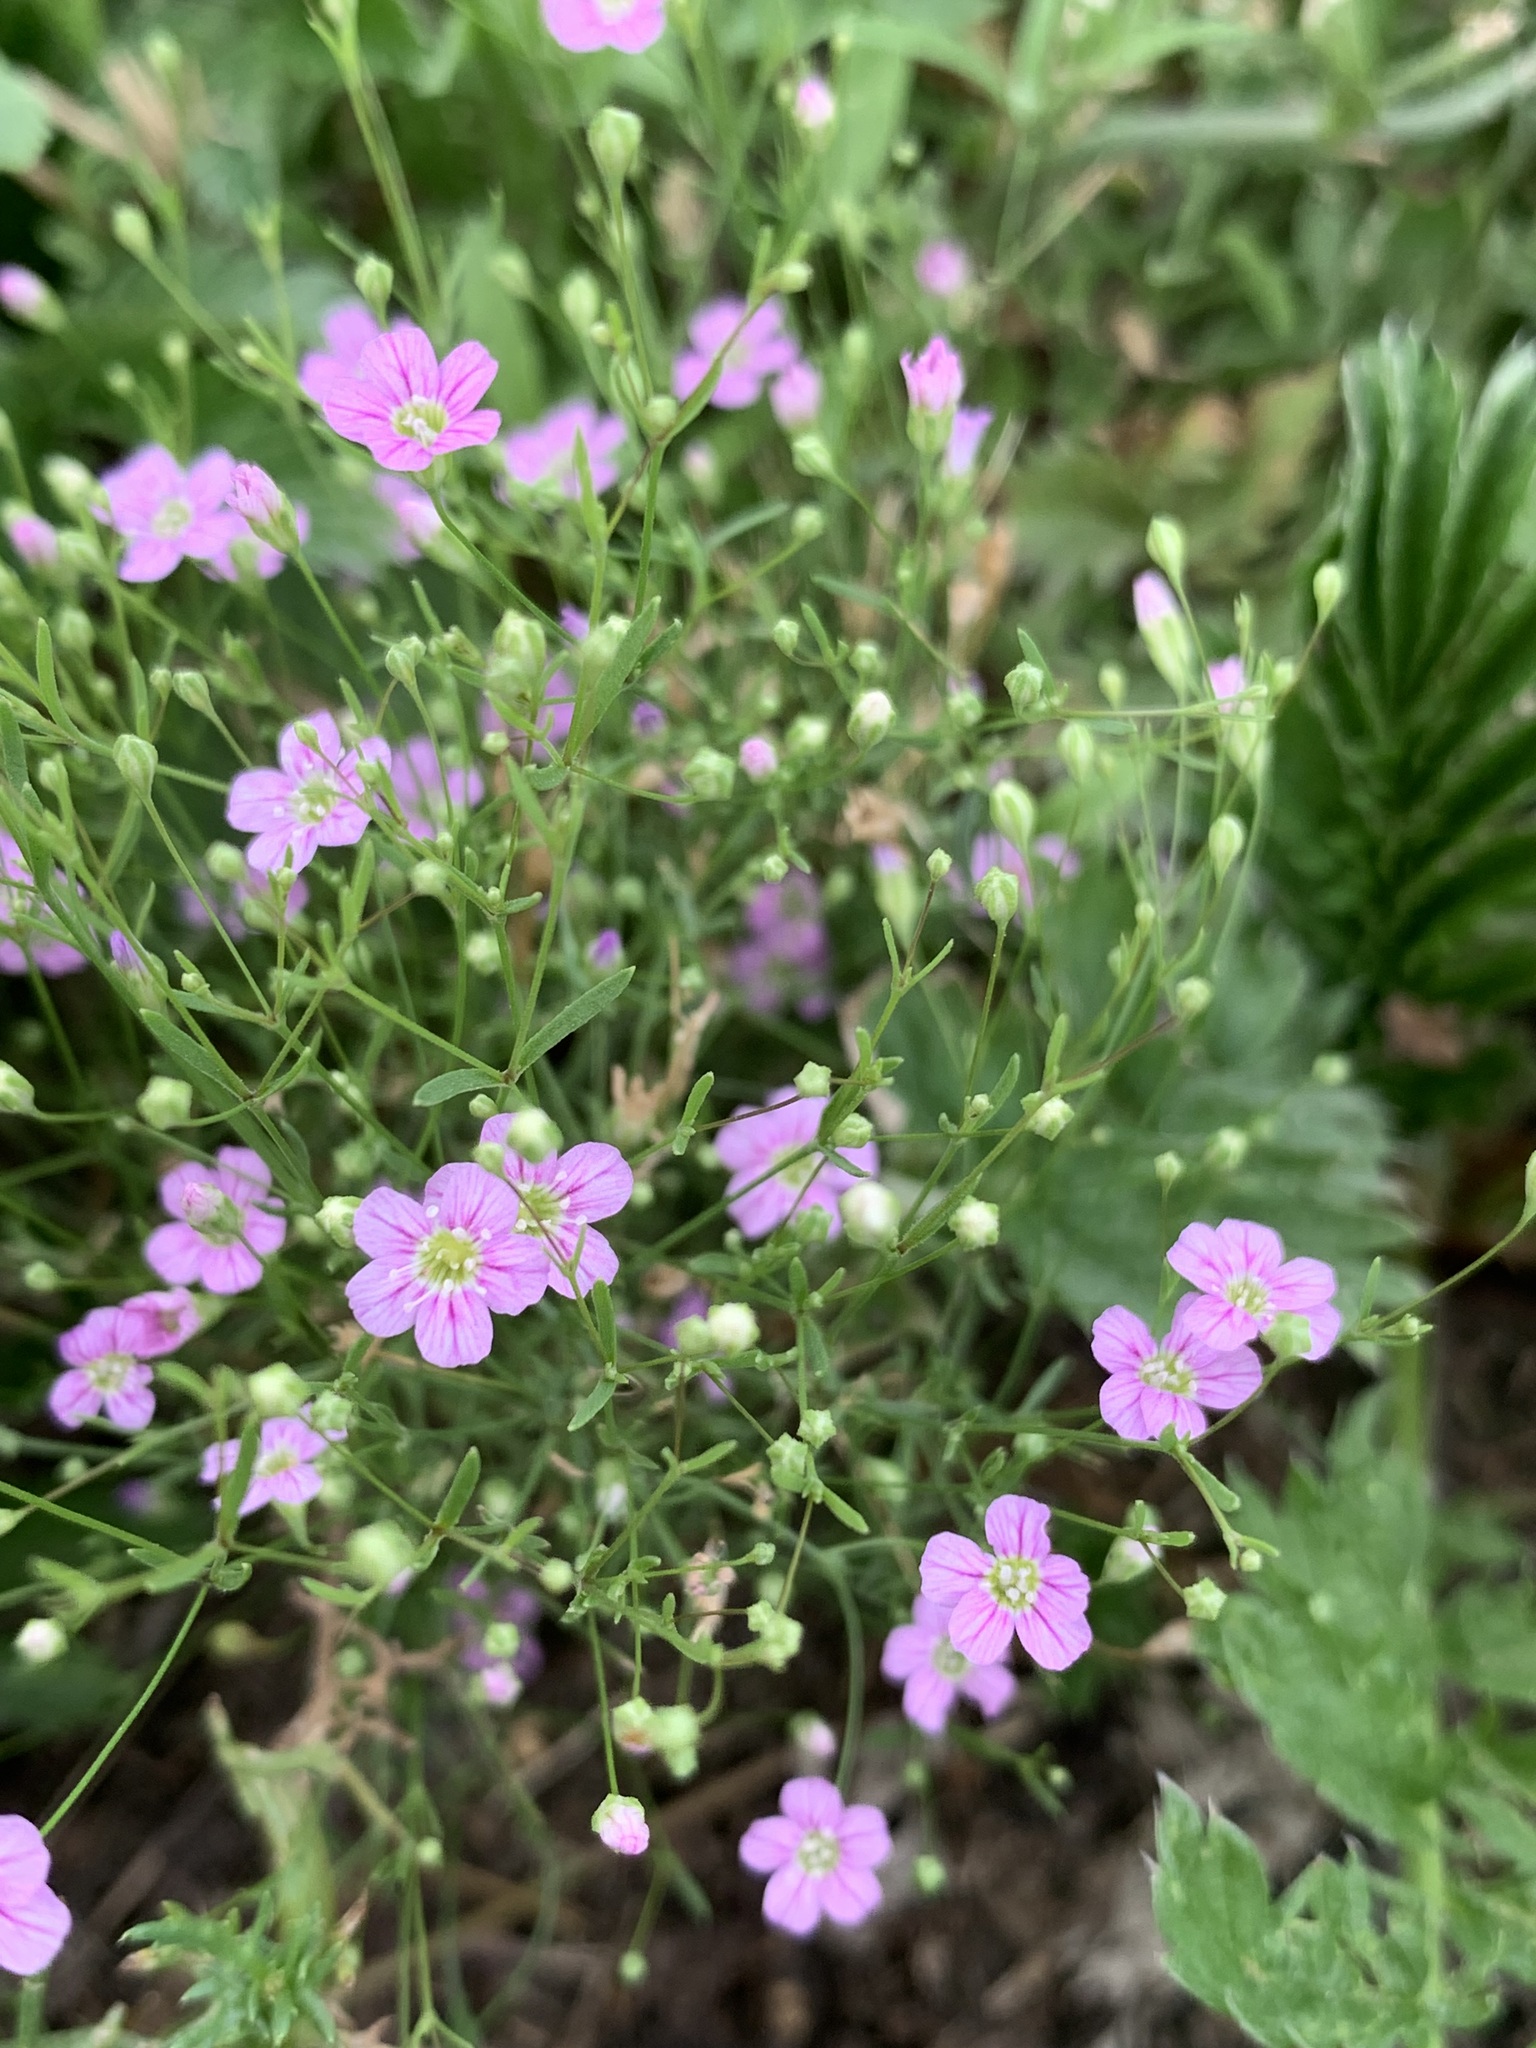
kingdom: Plantae
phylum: Tracheophyta
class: Magnoliopsida
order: Caryophyllales
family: Caryophyllaceae
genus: Psammophiliella
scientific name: Psammophiliella muralis
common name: Cushion baby's-breath
